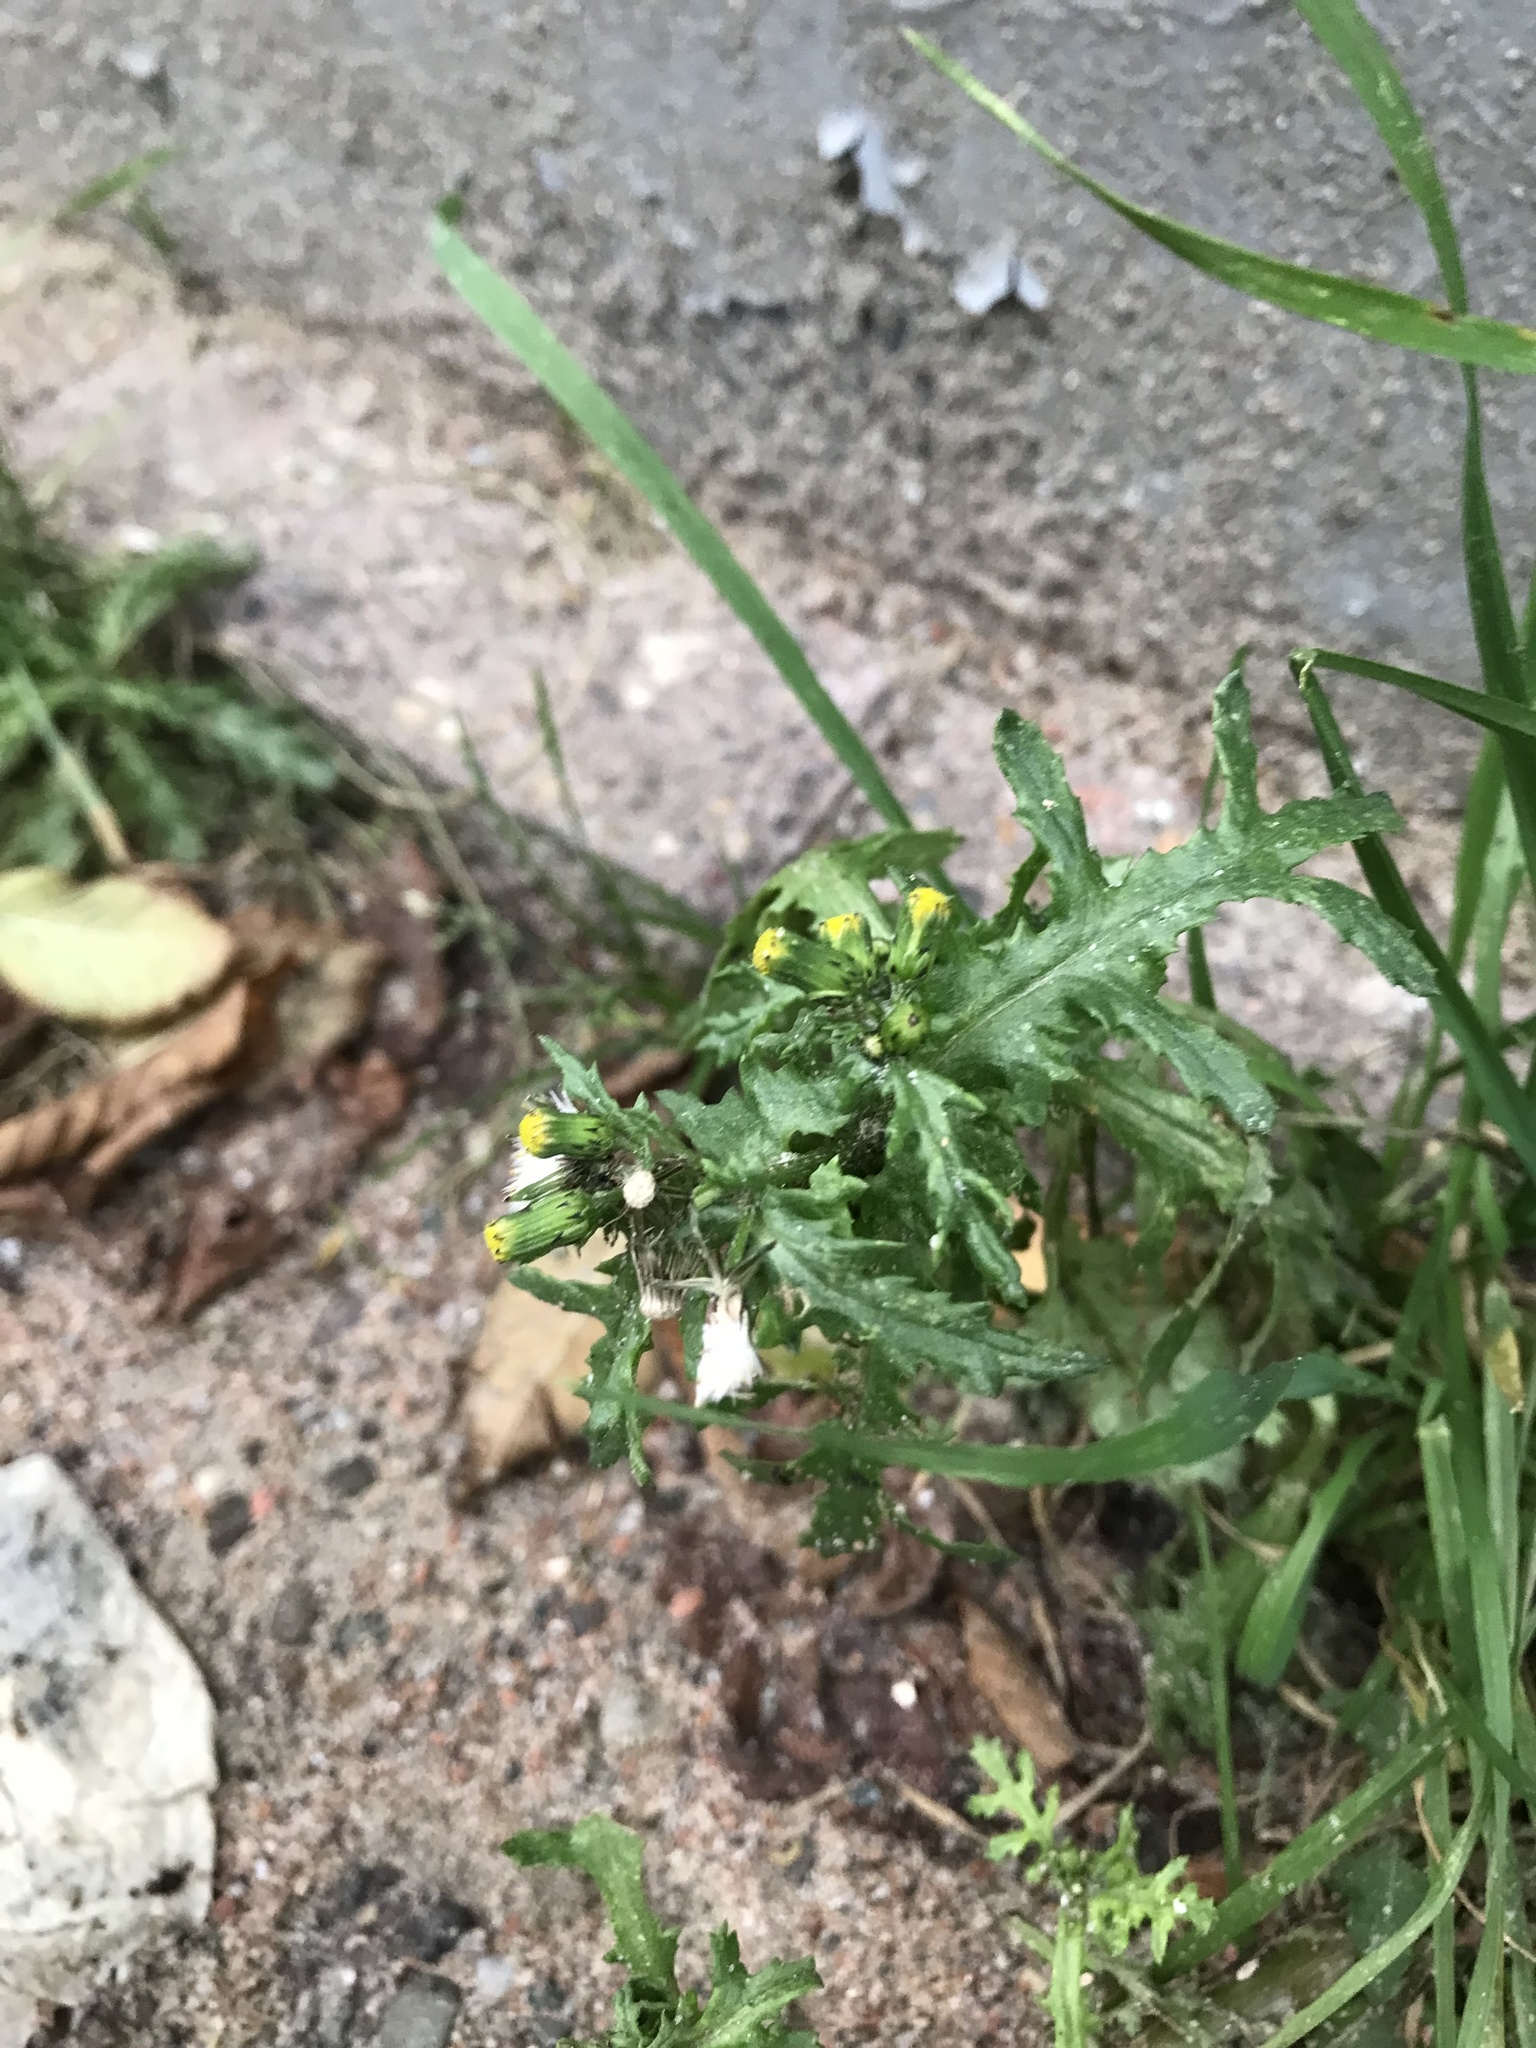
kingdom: Plantae
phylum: Tracheophyta
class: Magnoliopsida
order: Asterales
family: Asteraceae
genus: Senecio
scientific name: Senecio vulgaris
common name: Old-man-in-the-spring
